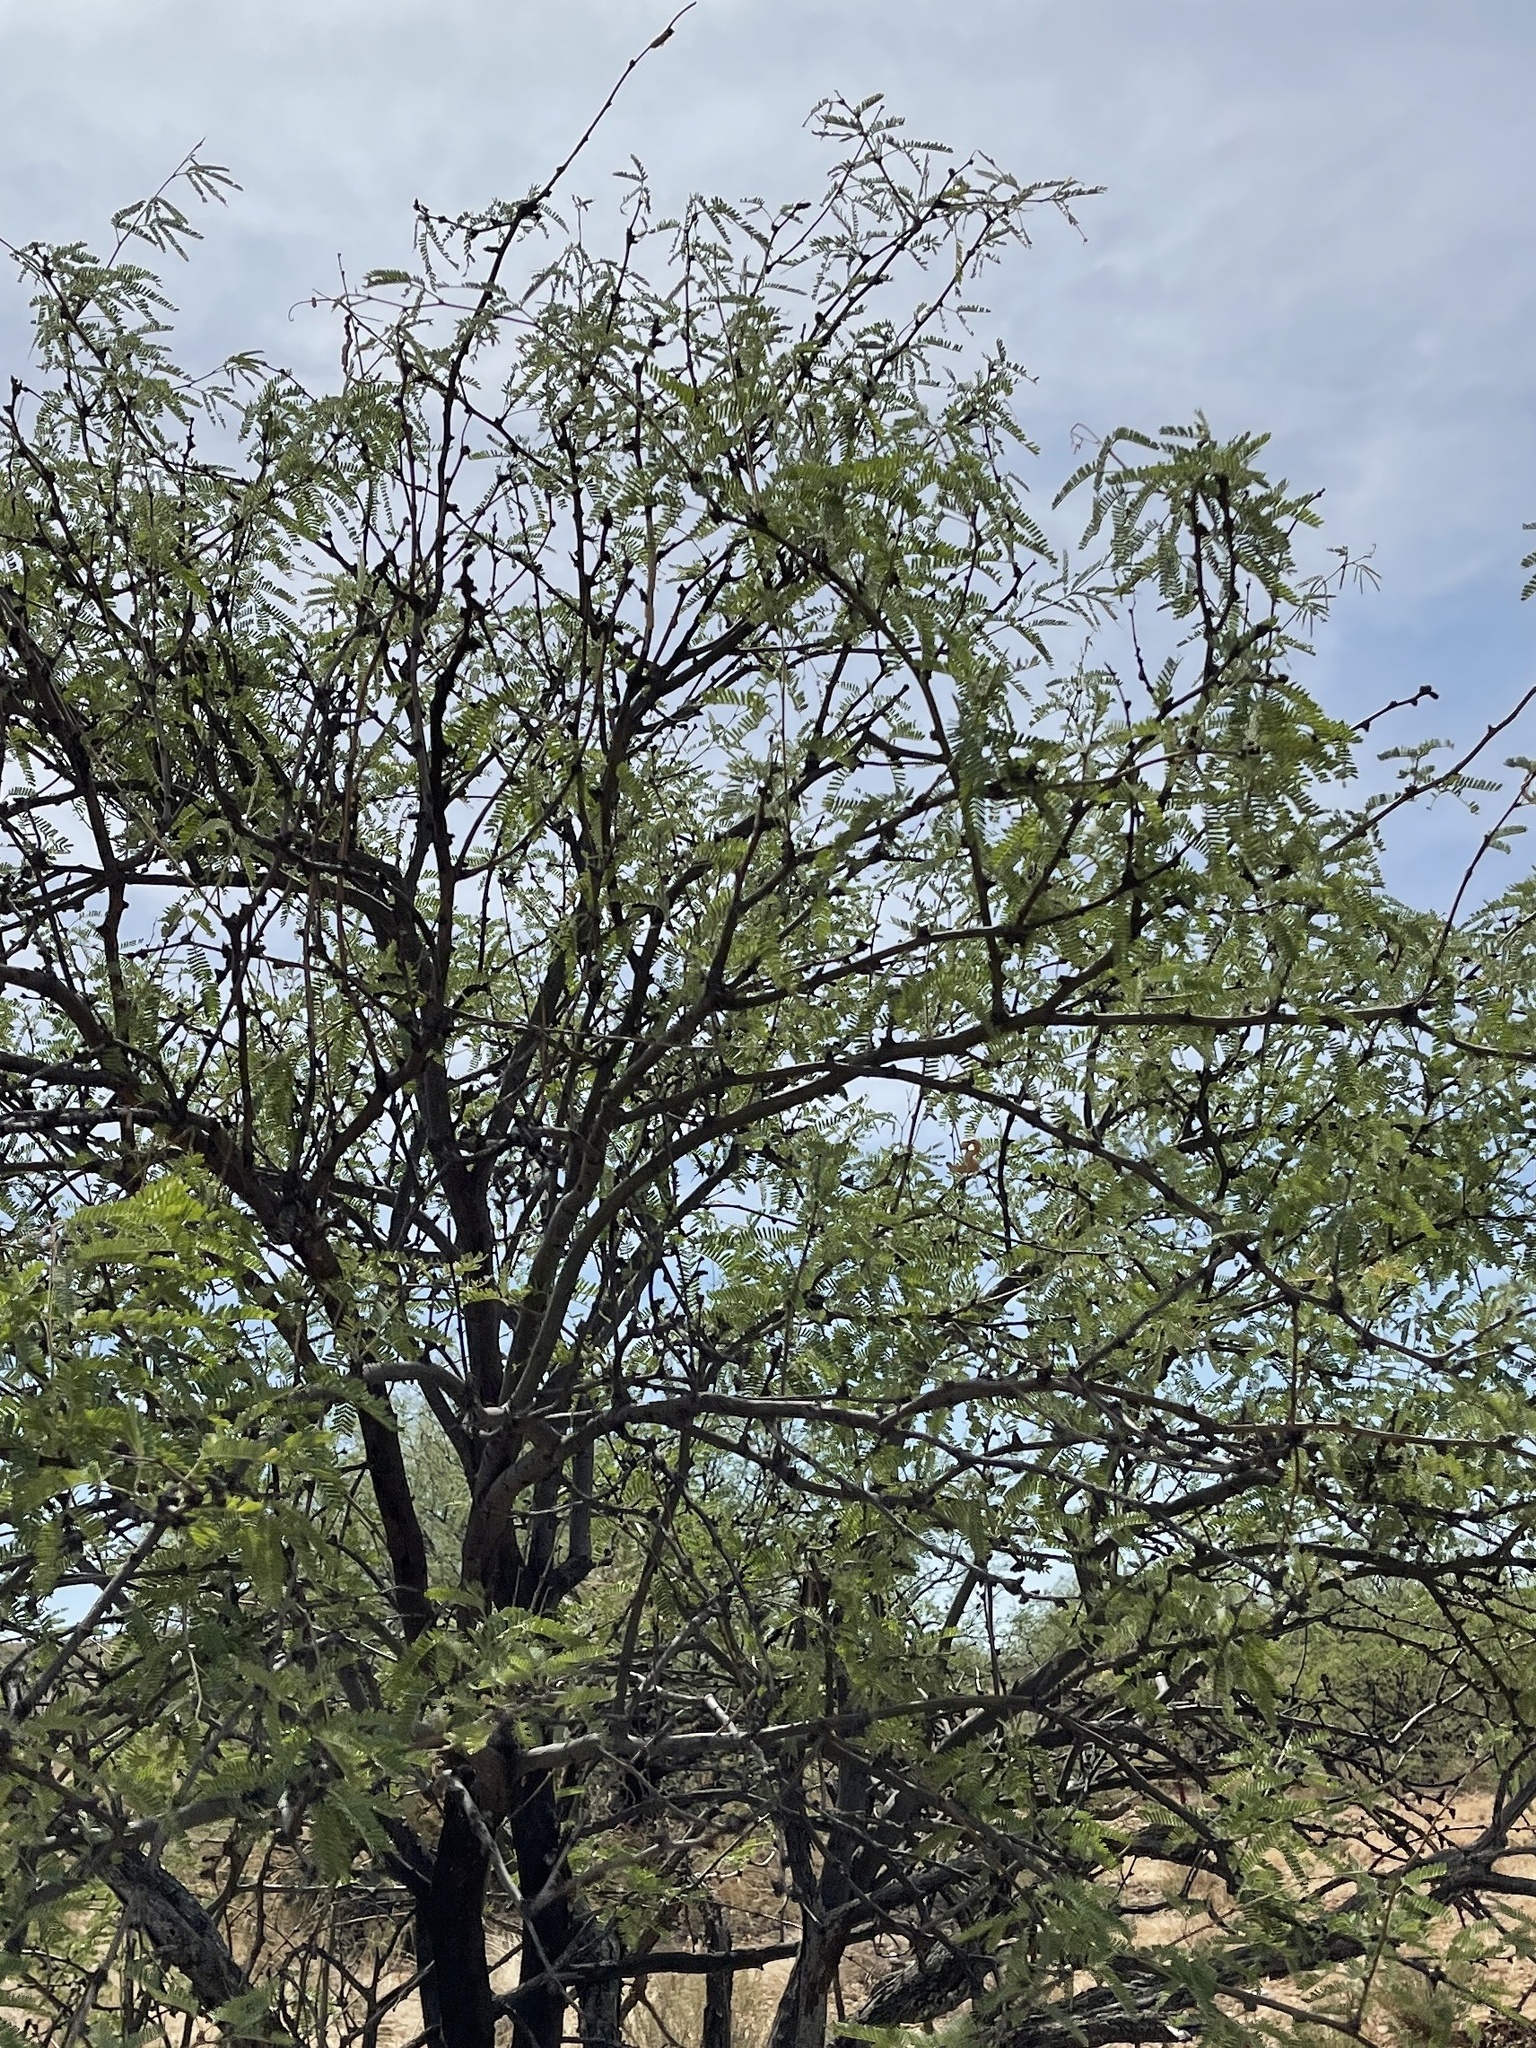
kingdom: Plantae
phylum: Tracheophyta
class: Magnoliopsida
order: Fabales
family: Fabaceae
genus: Prosopis
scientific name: Prosopis velutina
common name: Velvet mesquite
